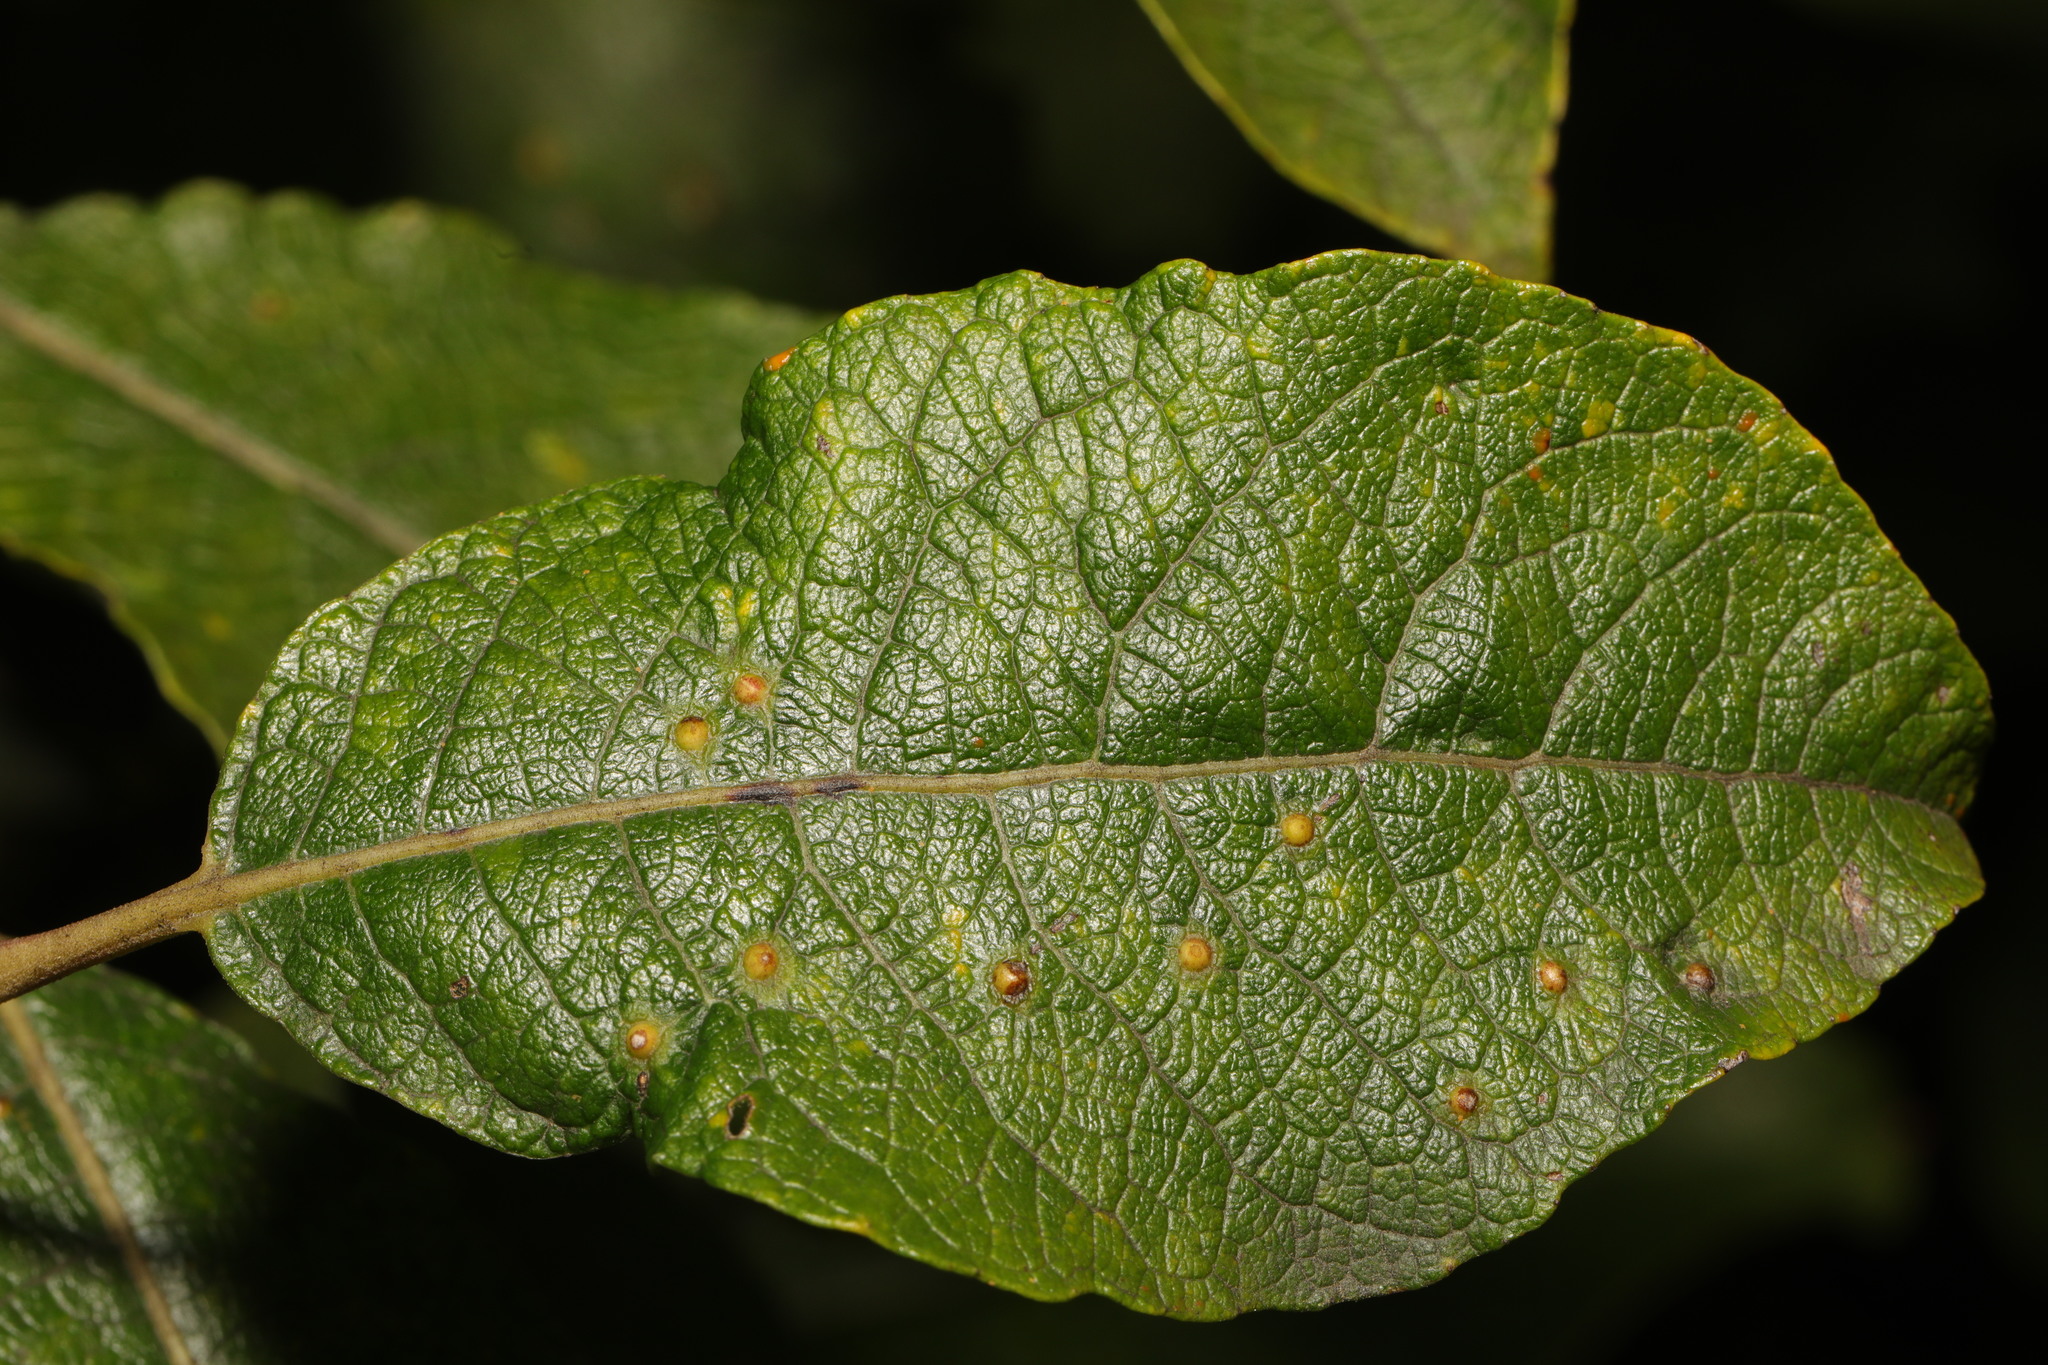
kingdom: Animalia
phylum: Arthropoda
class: Insecta
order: Diptera
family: Cecidomyiidae
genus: Iteomyia
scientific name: Iteomyia capreae
